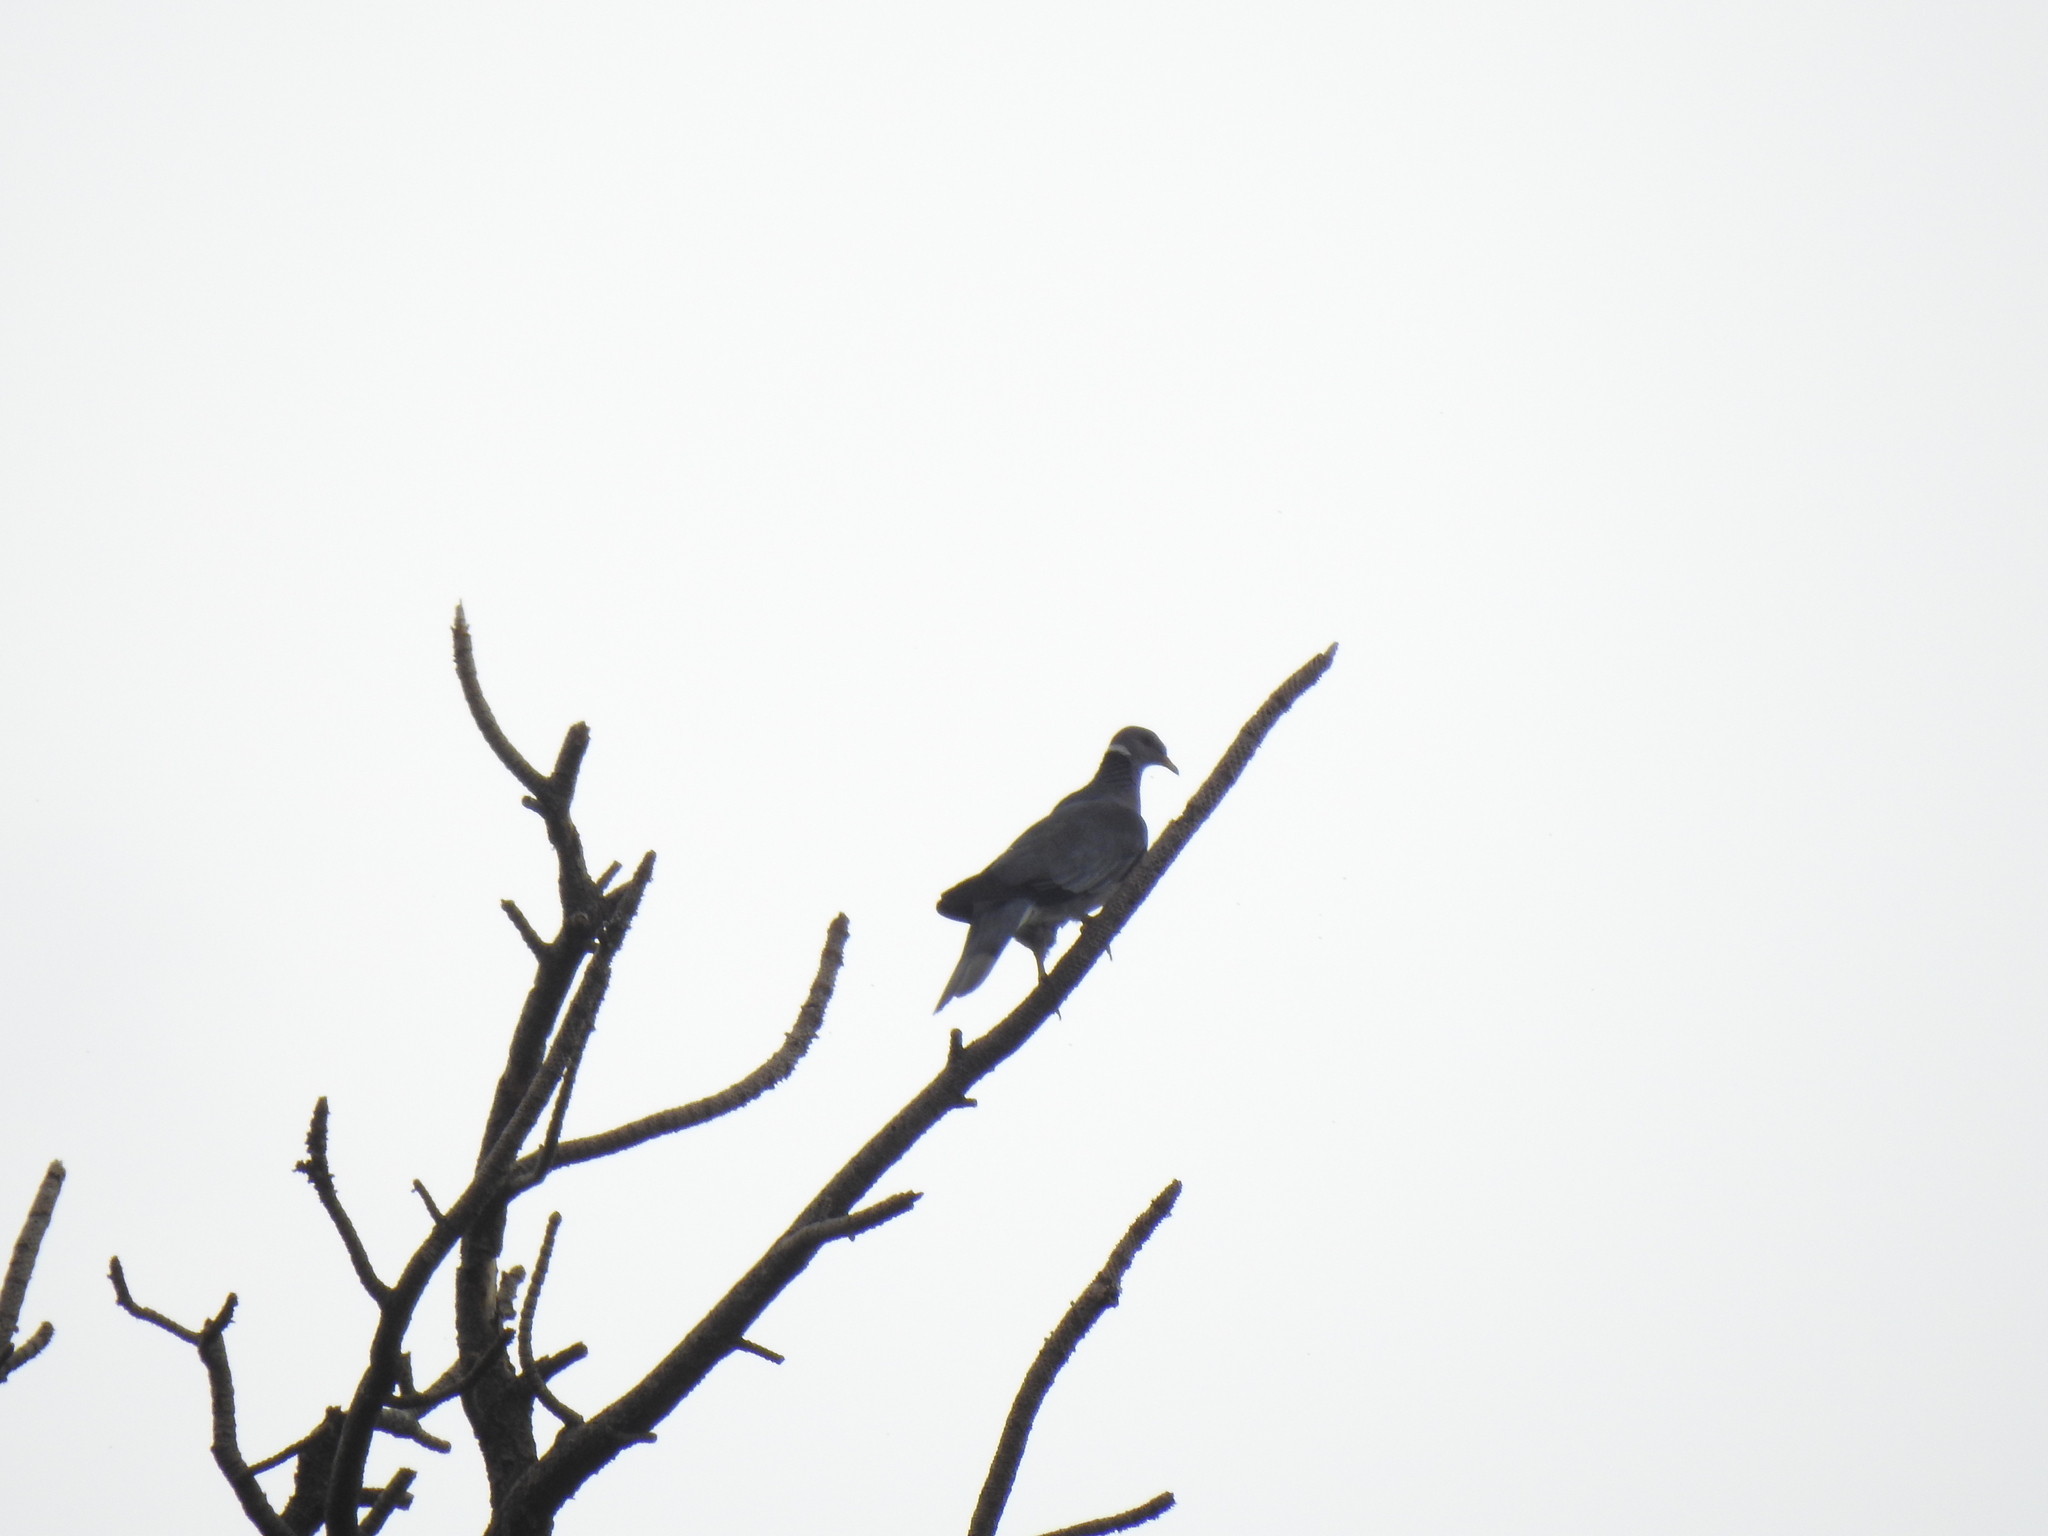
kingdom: Animalia
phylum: Chordata
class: Aves
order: Columbiformes
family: Columbidae
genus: Patagioenas
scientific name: Patagioenas fasciata
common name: Band-tailed pigeon
